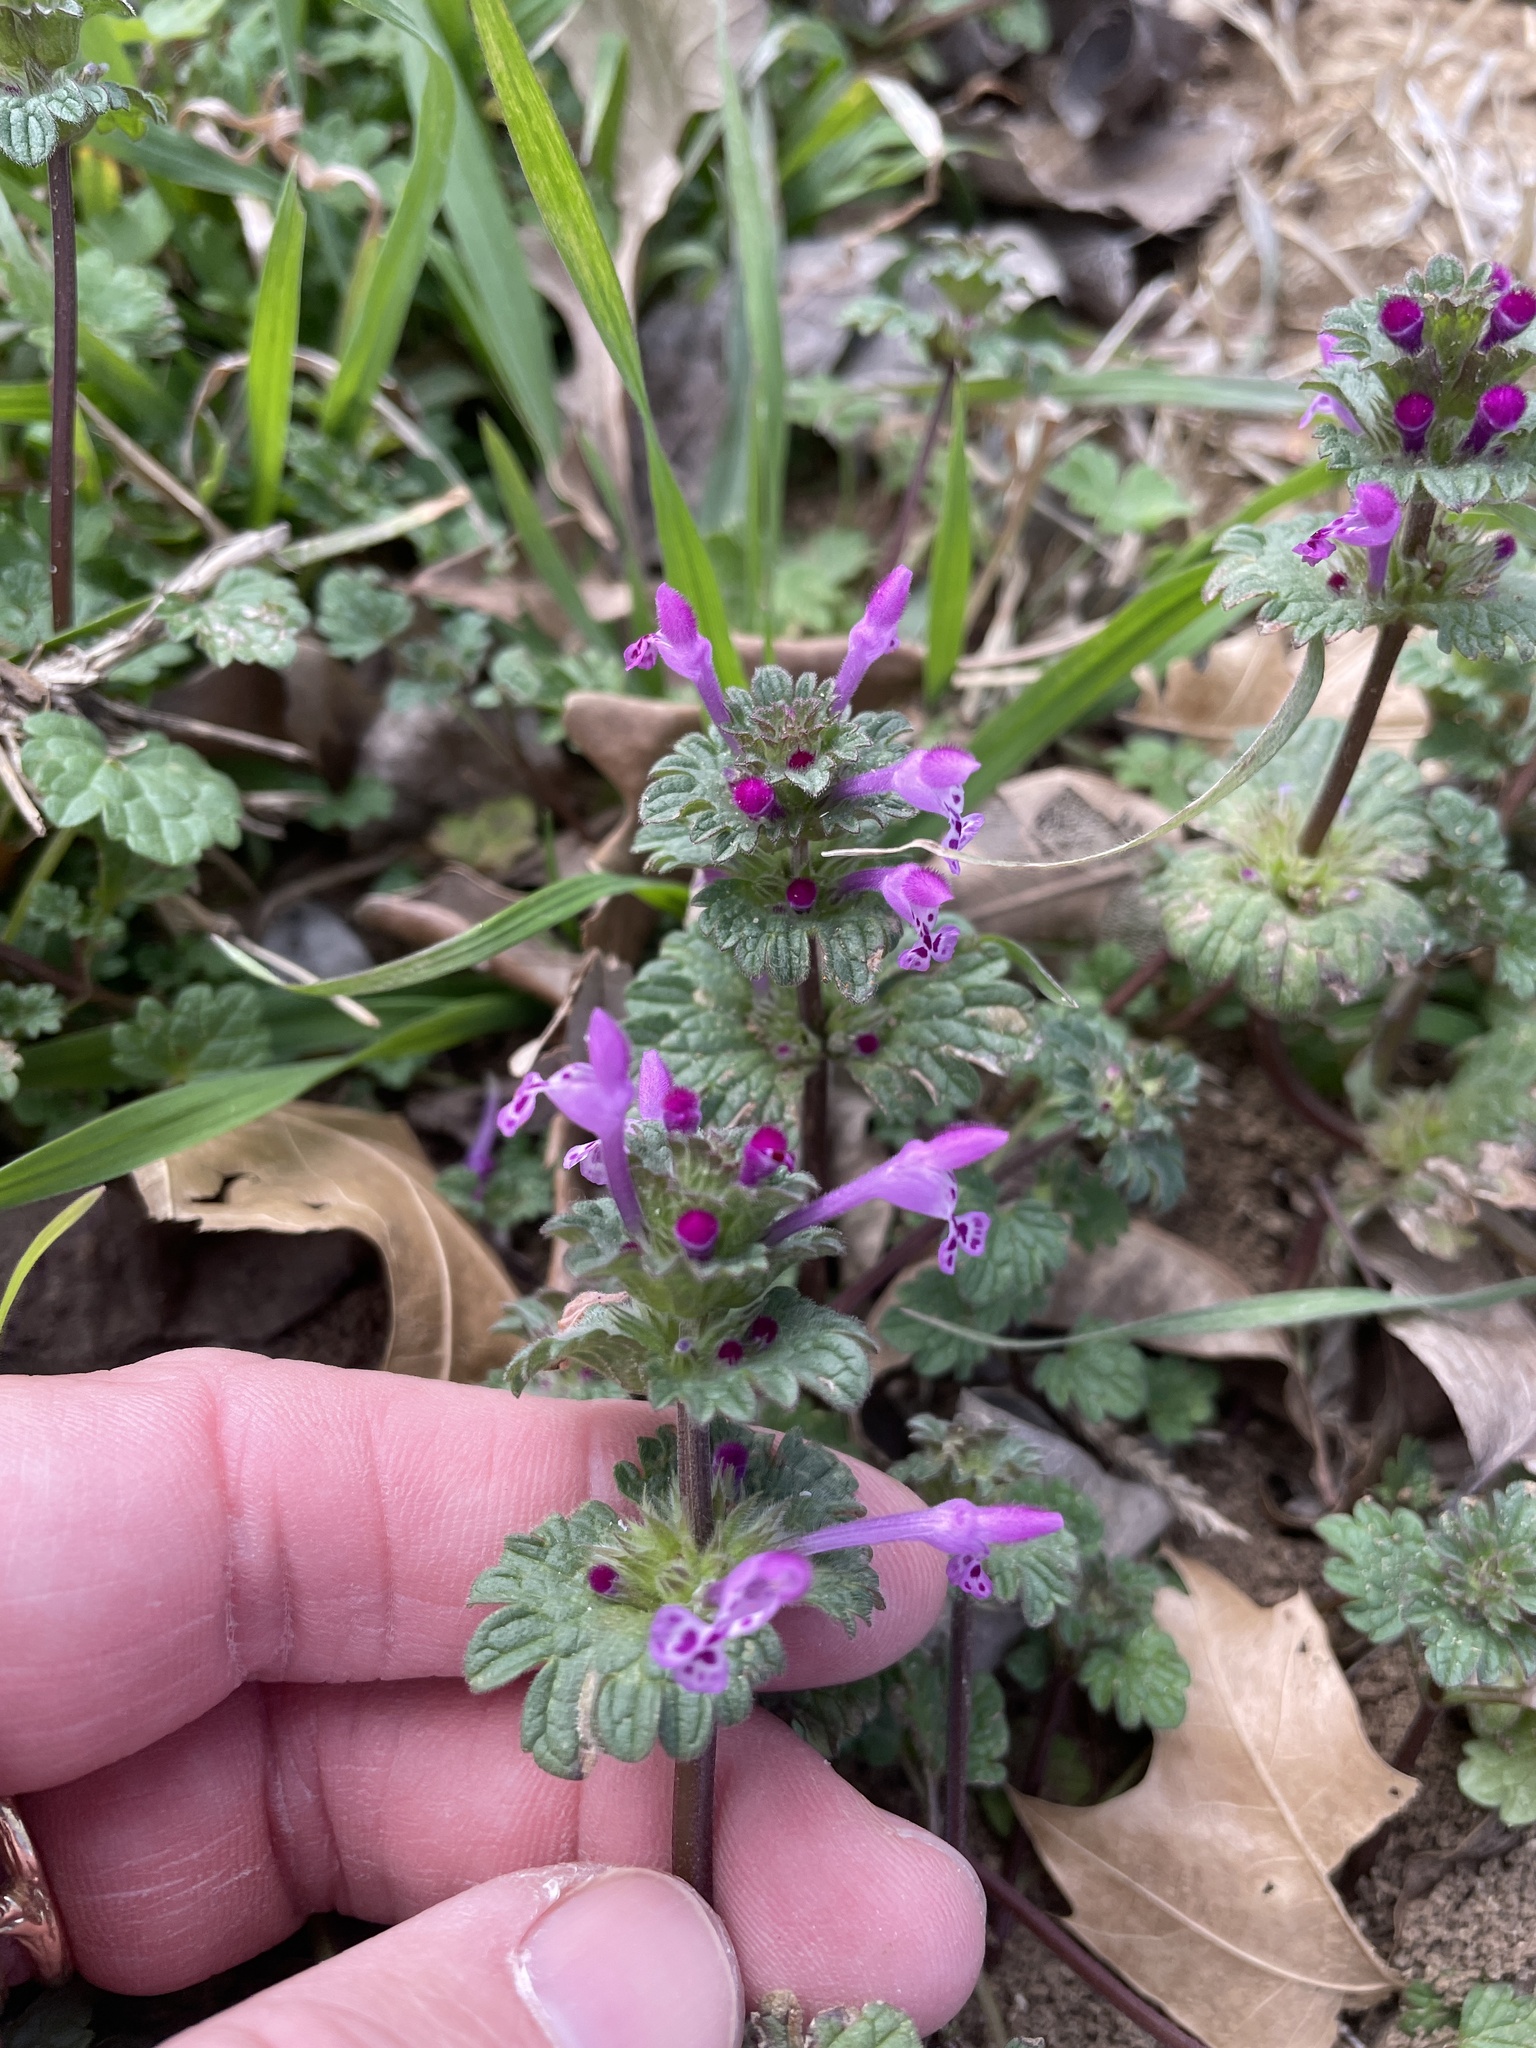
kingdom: Plantae
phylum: Tracheophyta
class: Magnoliopsida
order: Lamiales
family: Lamiaceae
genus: Lamium
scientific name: Lamium amplexicaule
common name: Henbit dead-nettle
